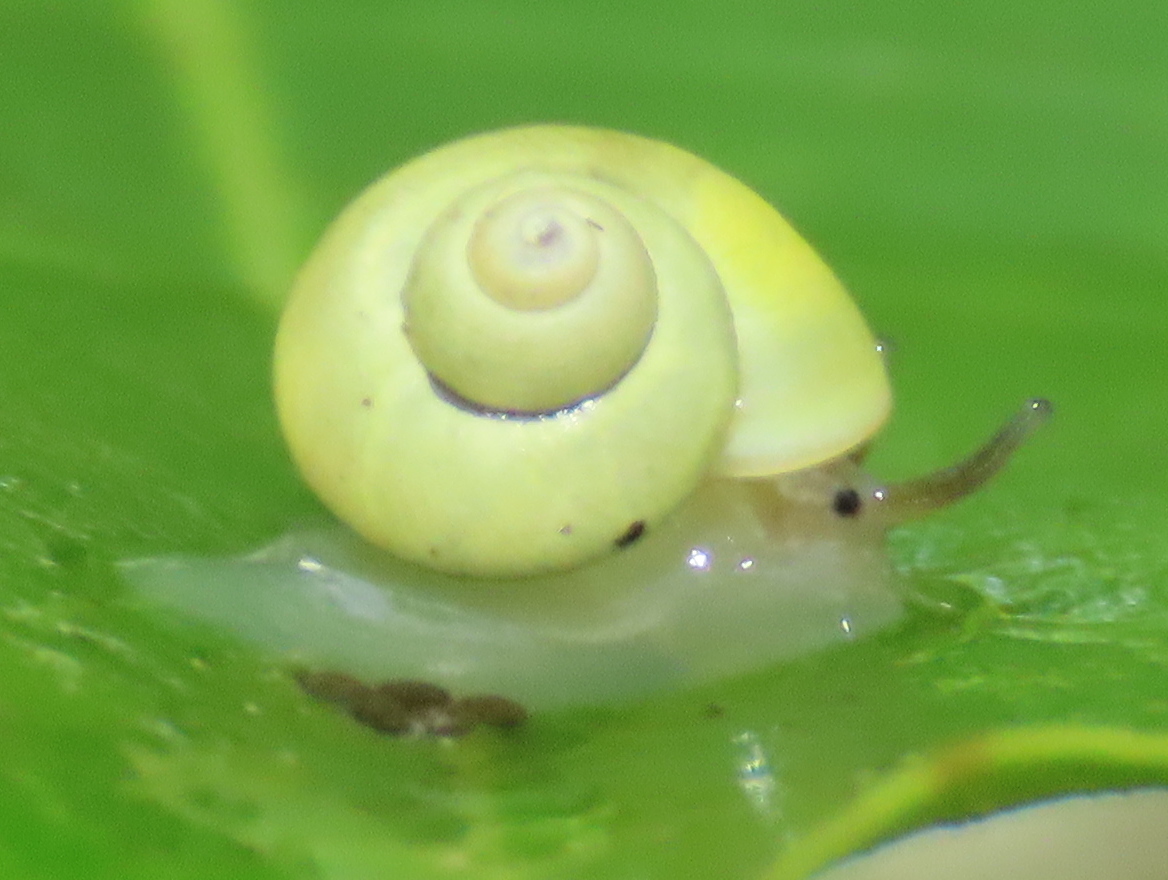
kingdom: Animalia
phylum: Mollusca
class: Gastropoda
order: Architaenioglossa
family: Cyclophoridae
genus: Leptopoma
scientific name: Leptopoma nitidum
